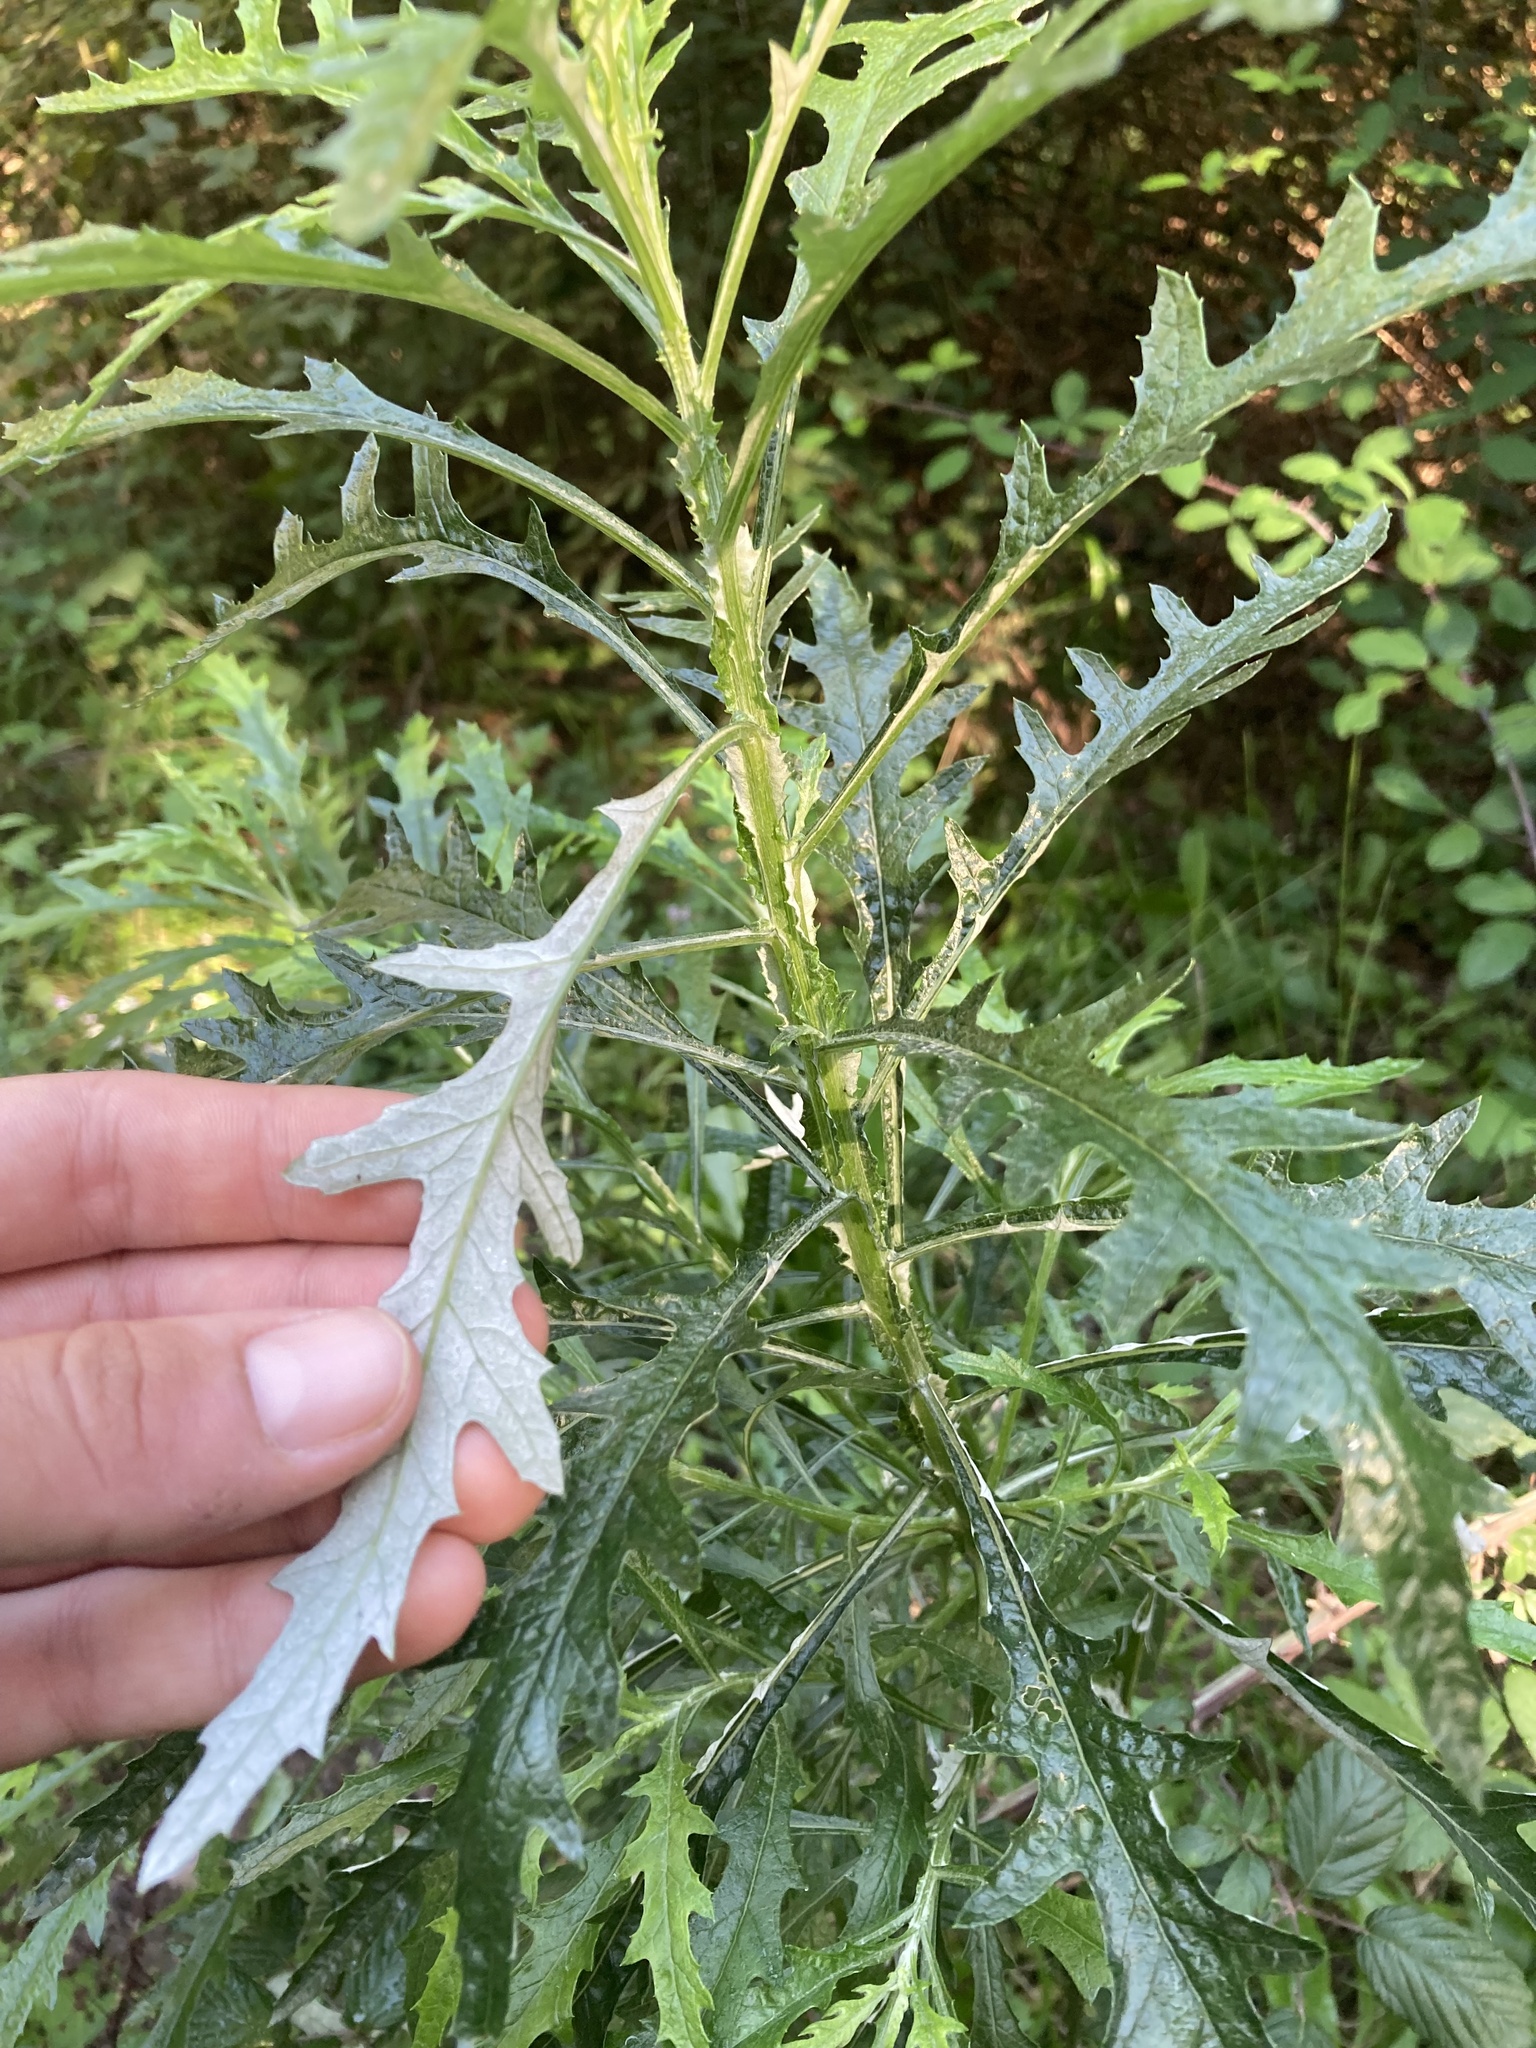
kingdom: Plantae
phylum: Tracheophyta
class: Magnoliopsida
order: Asterales
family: Asteraceae
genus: Senecio
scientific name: Senecio pterophorus
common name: Shoddy ragwort
